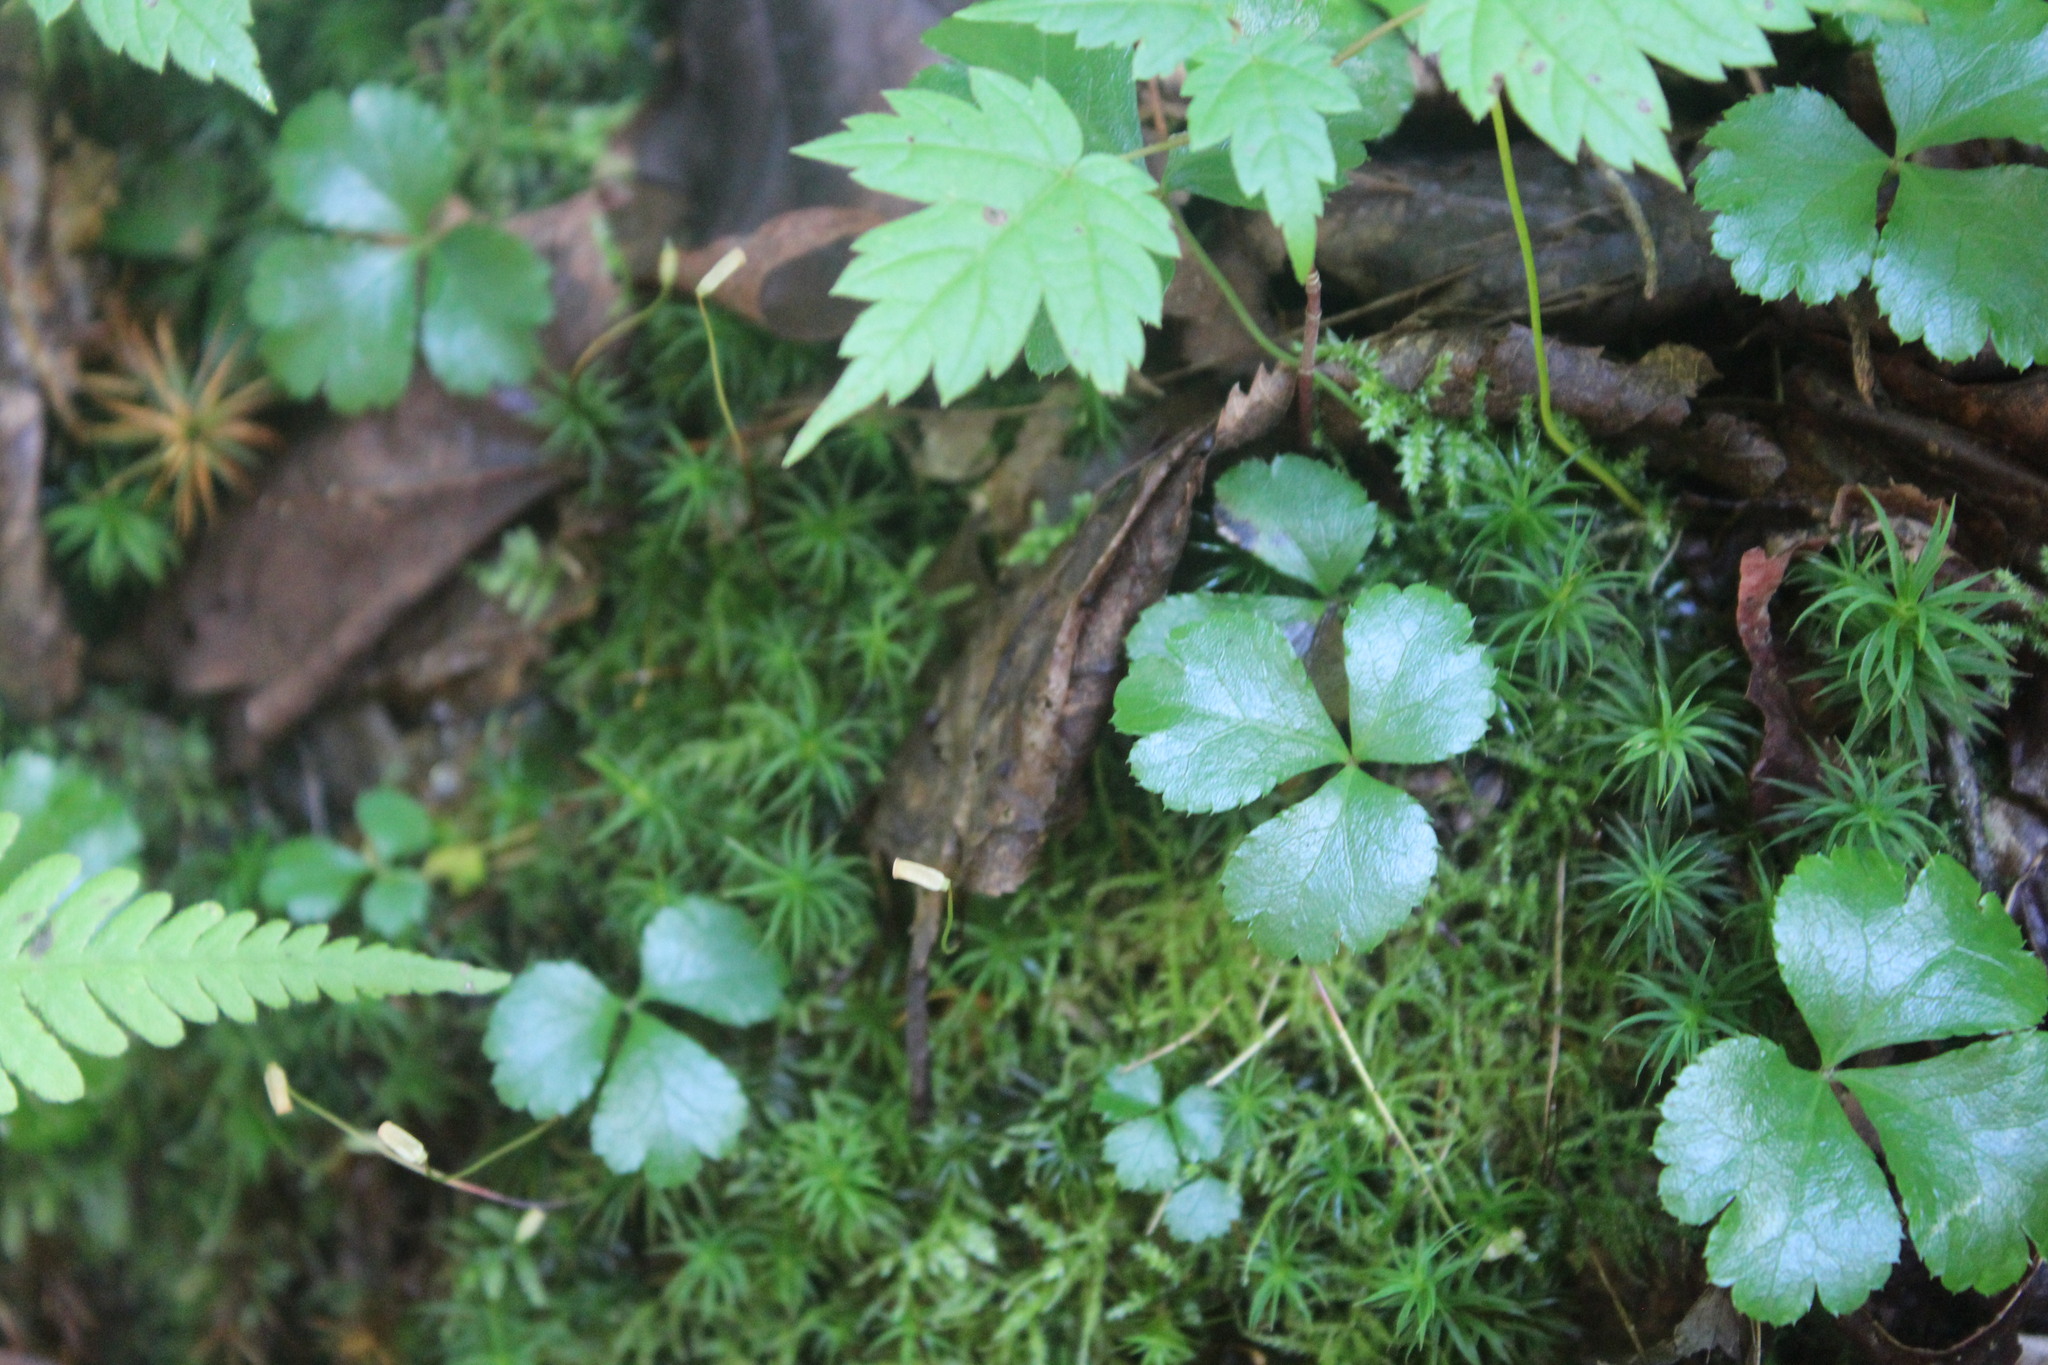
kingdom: Plantae
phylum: Tracheophyta
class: Magnoliopsida
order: Ranunculales
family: Ranunculaceae
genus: Coptis
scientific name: Coptis trifolia
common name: Canker-root
